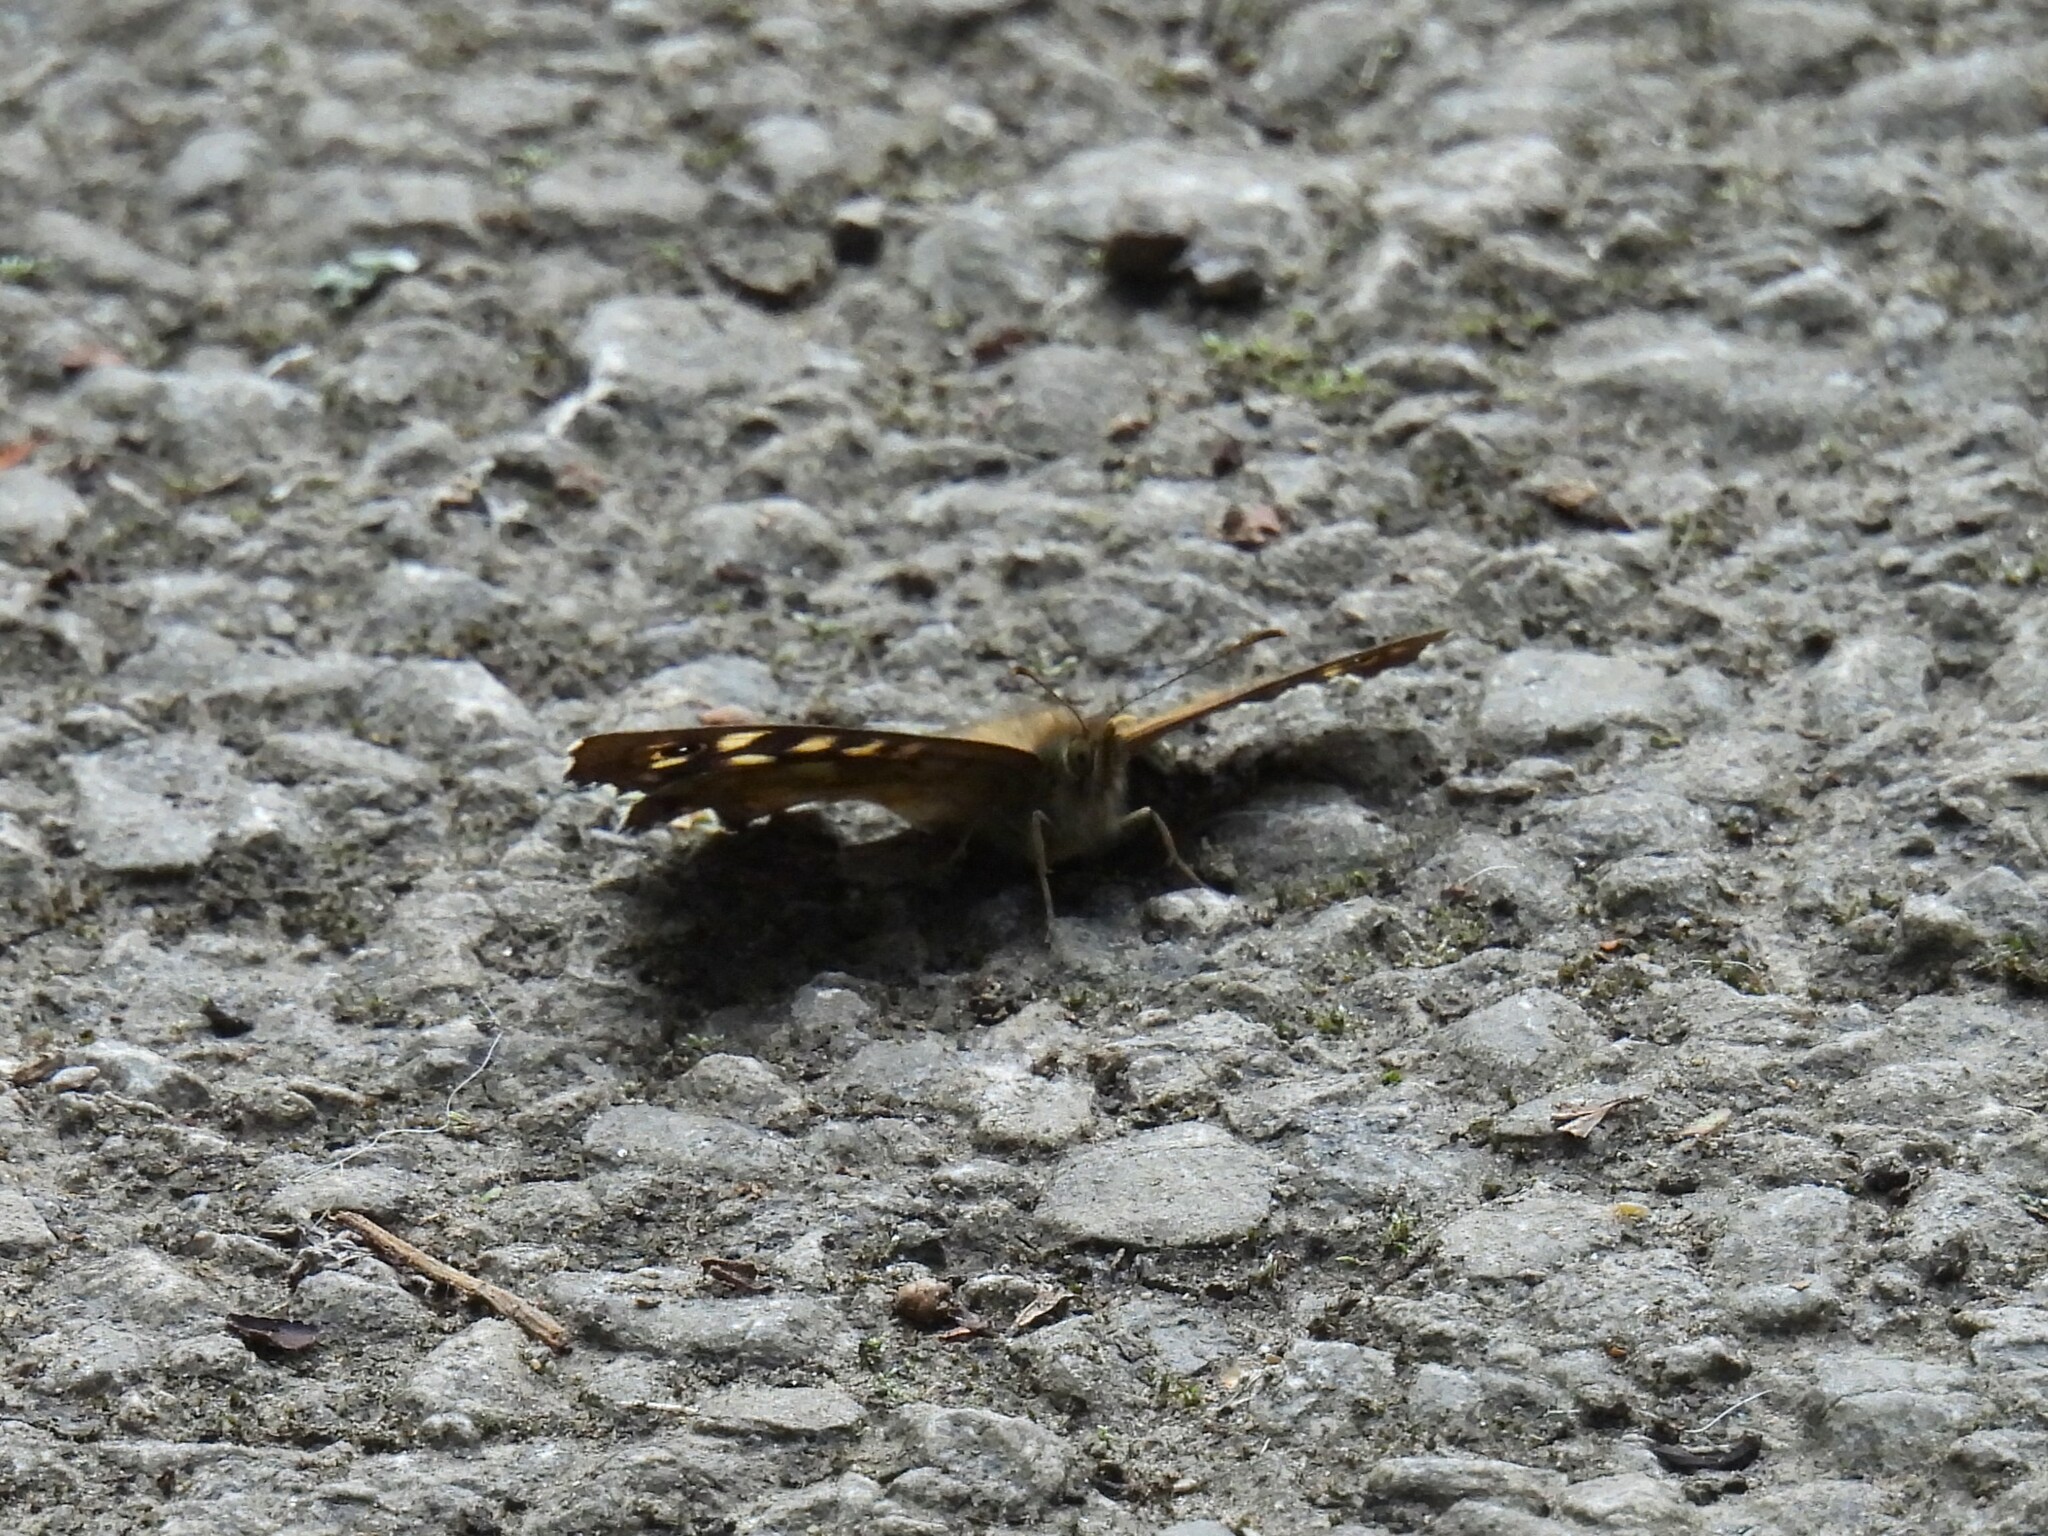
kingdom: Animalia
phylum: Arthropoda
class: Insecta
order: Lepidoptera
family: Nymphalidae
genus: Pararge
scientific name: Pararge aegeria
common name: Speckled wood
